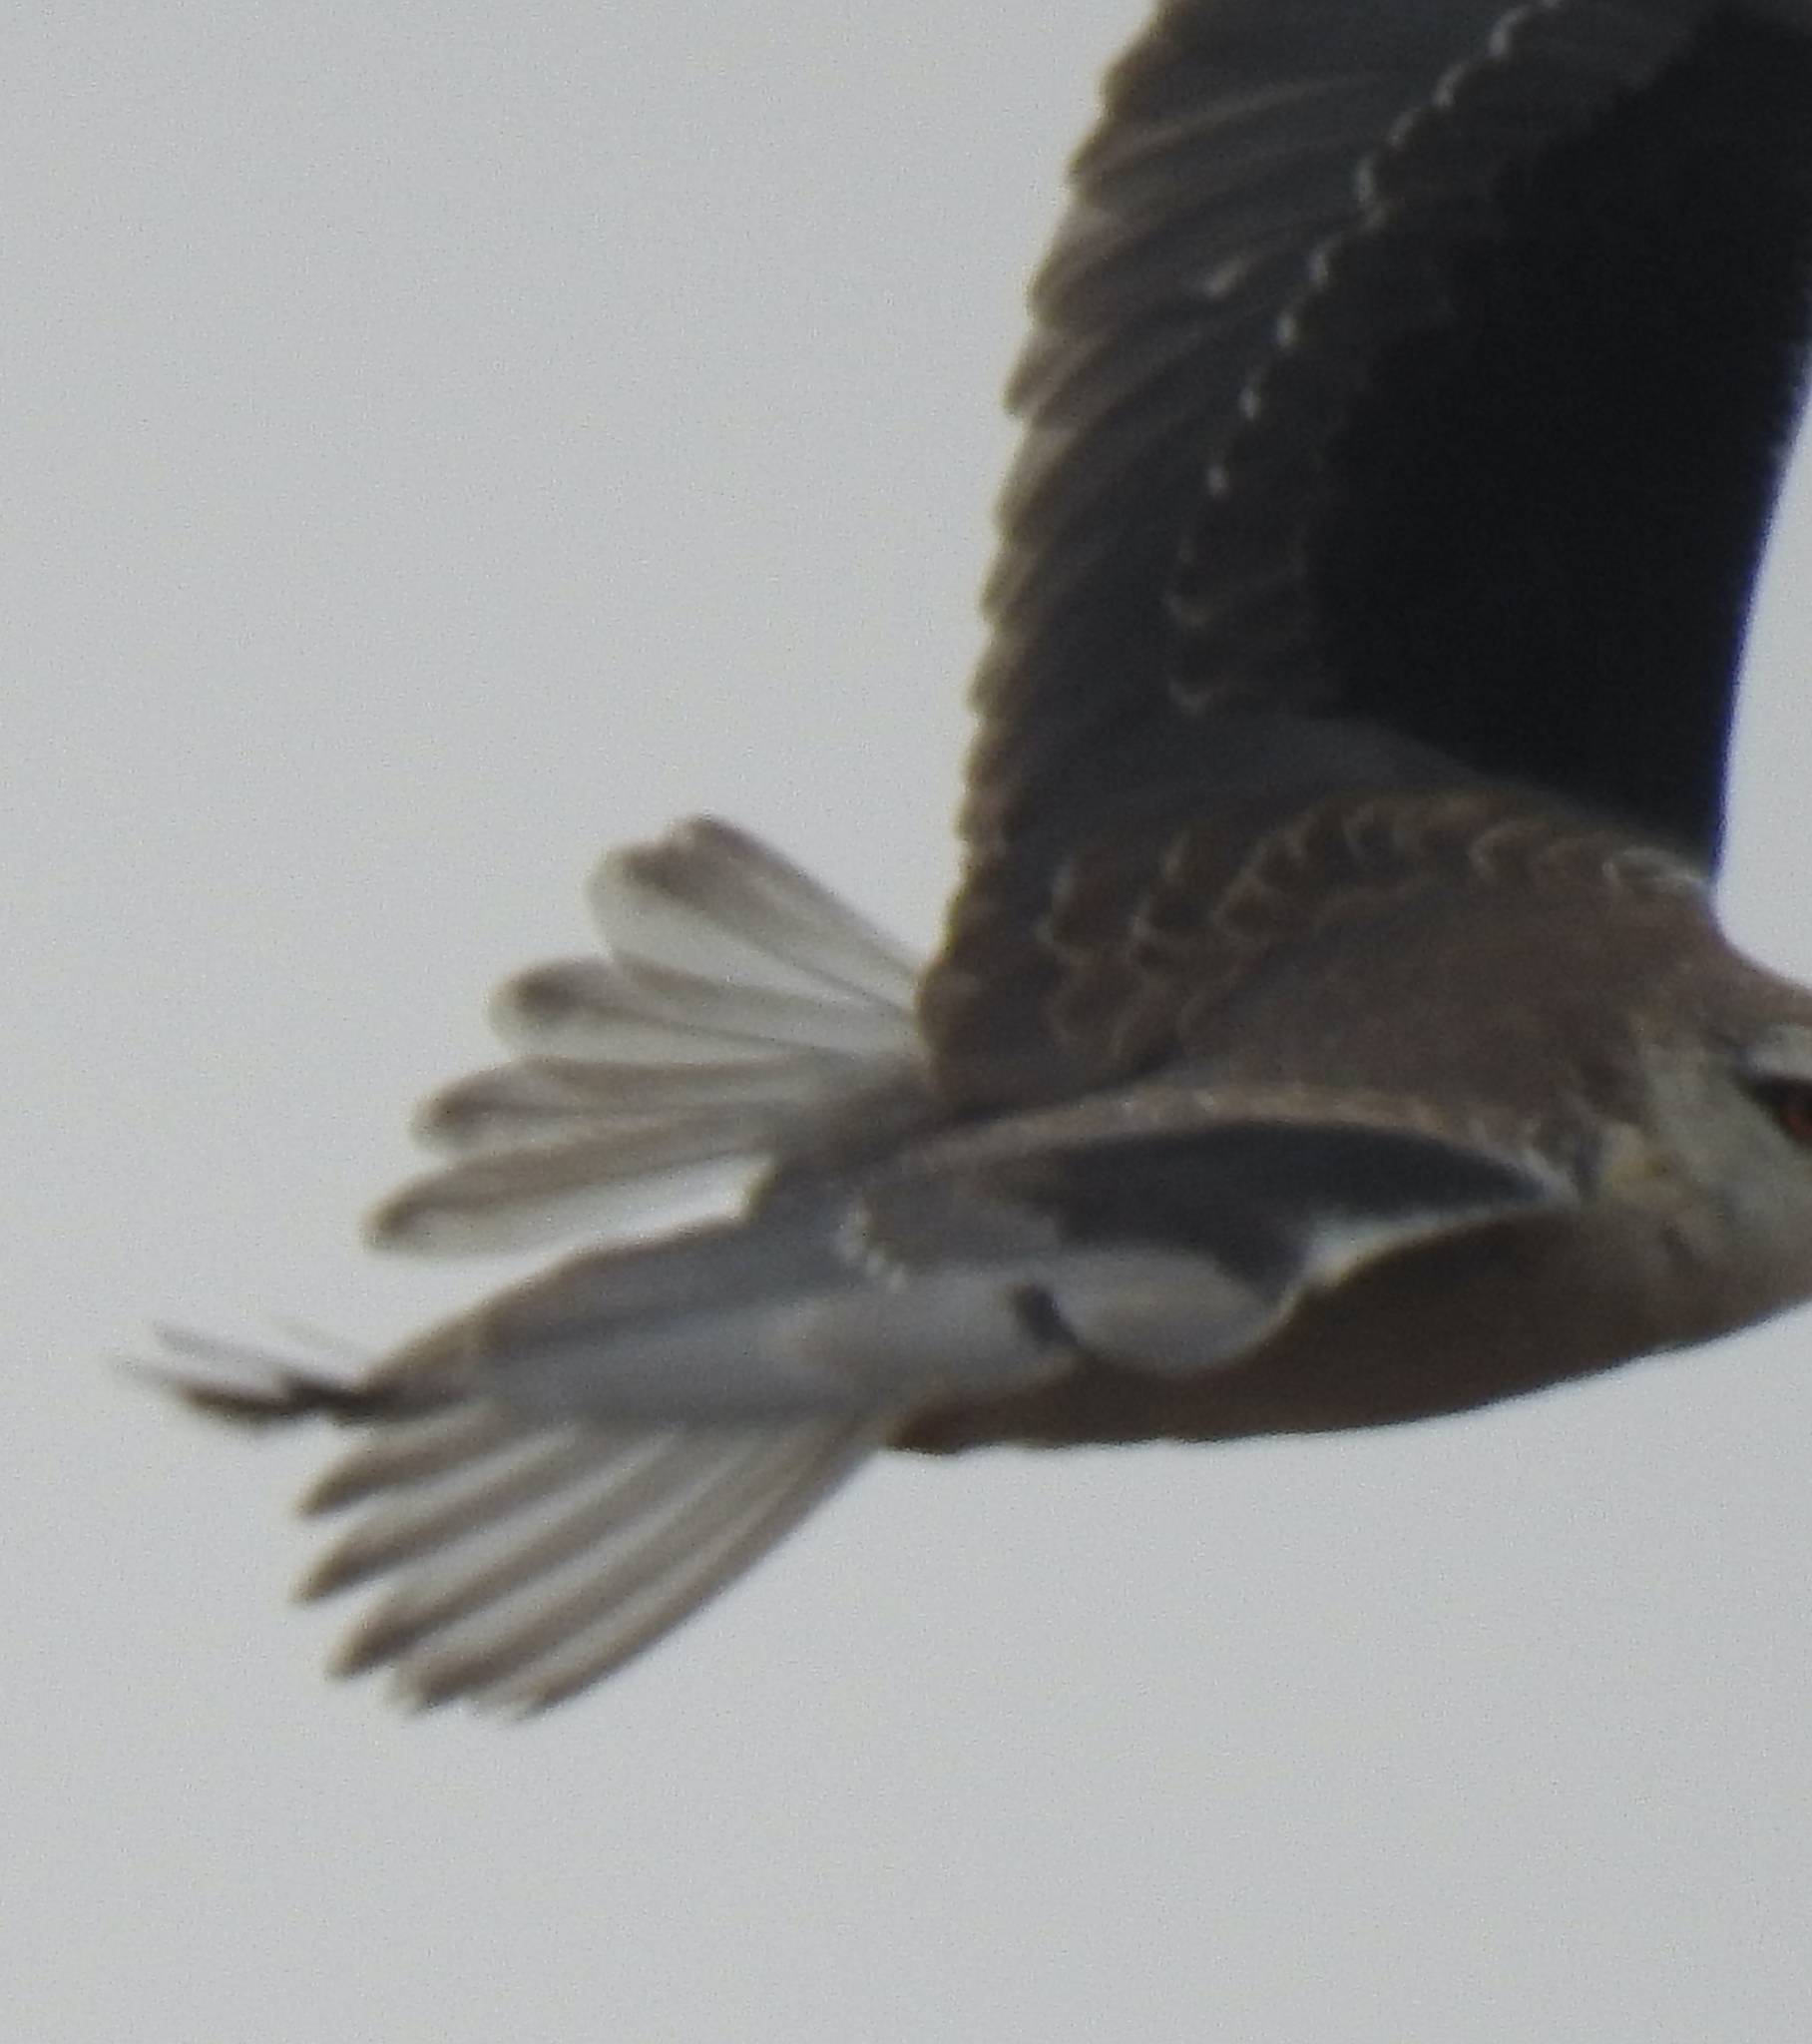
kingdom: Animalia
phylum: Chordata
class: Aves
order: Accipitriformes
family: Accipitridae
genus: Elanus
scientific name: Elanus caeruleus
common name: Black-winged kite
